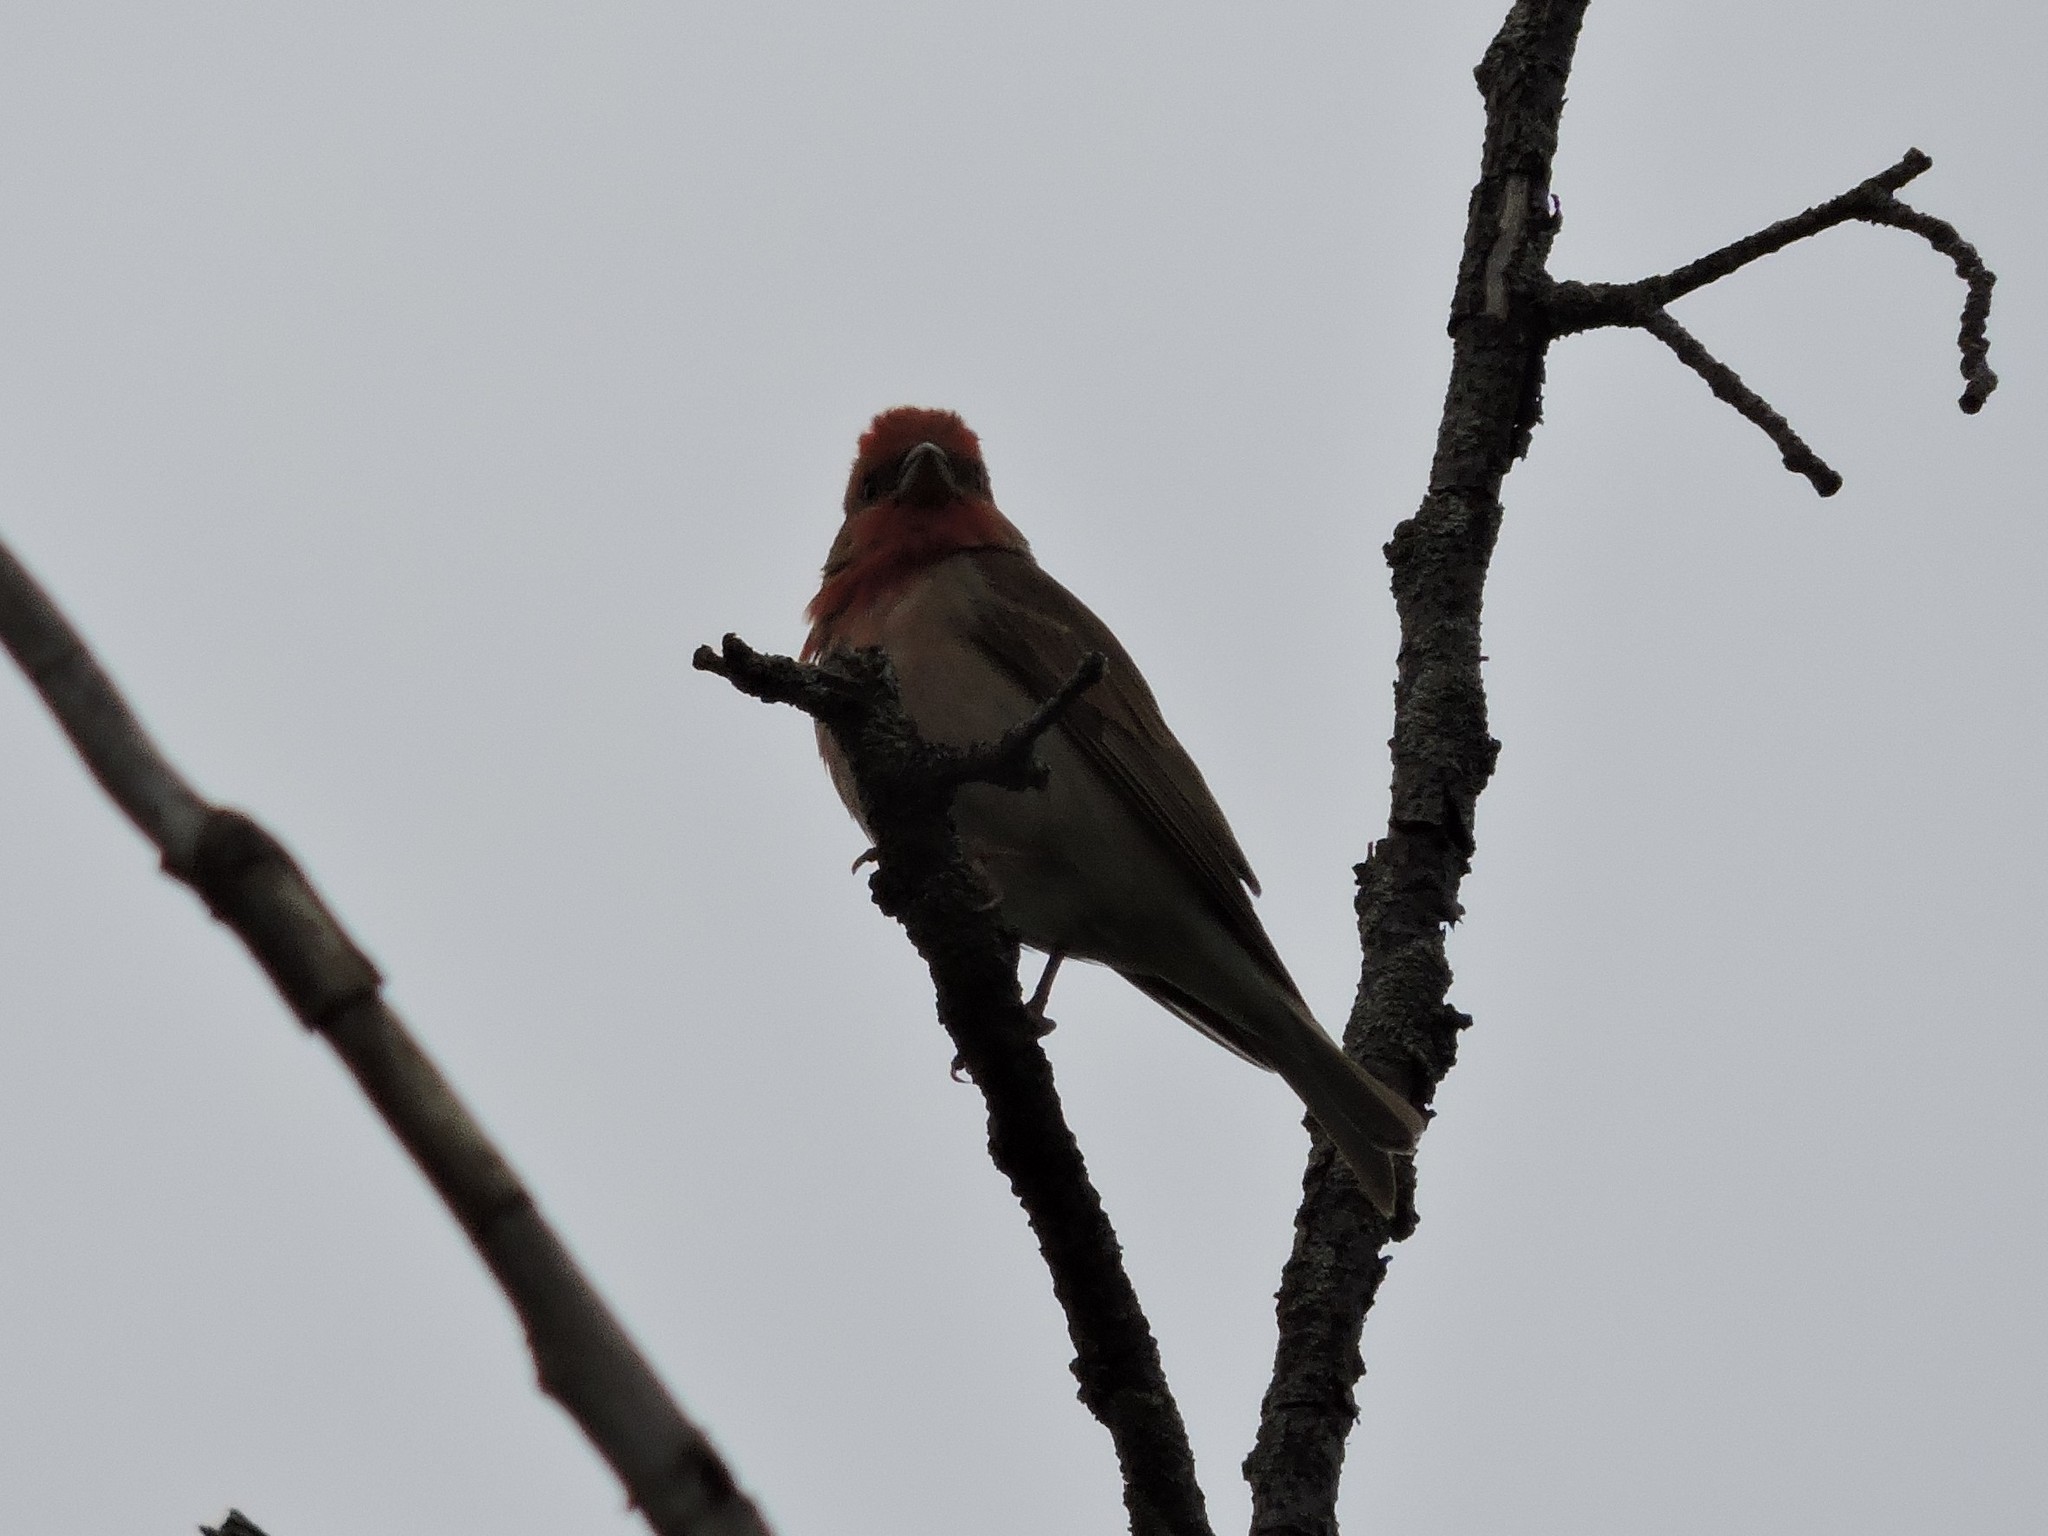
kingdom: Animalia
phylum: Chordata
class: Aves
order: Passeriformes
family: Fringillidae
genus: Carpodacus
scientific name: Carpodacus erythrinus
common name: Common rosefinch
